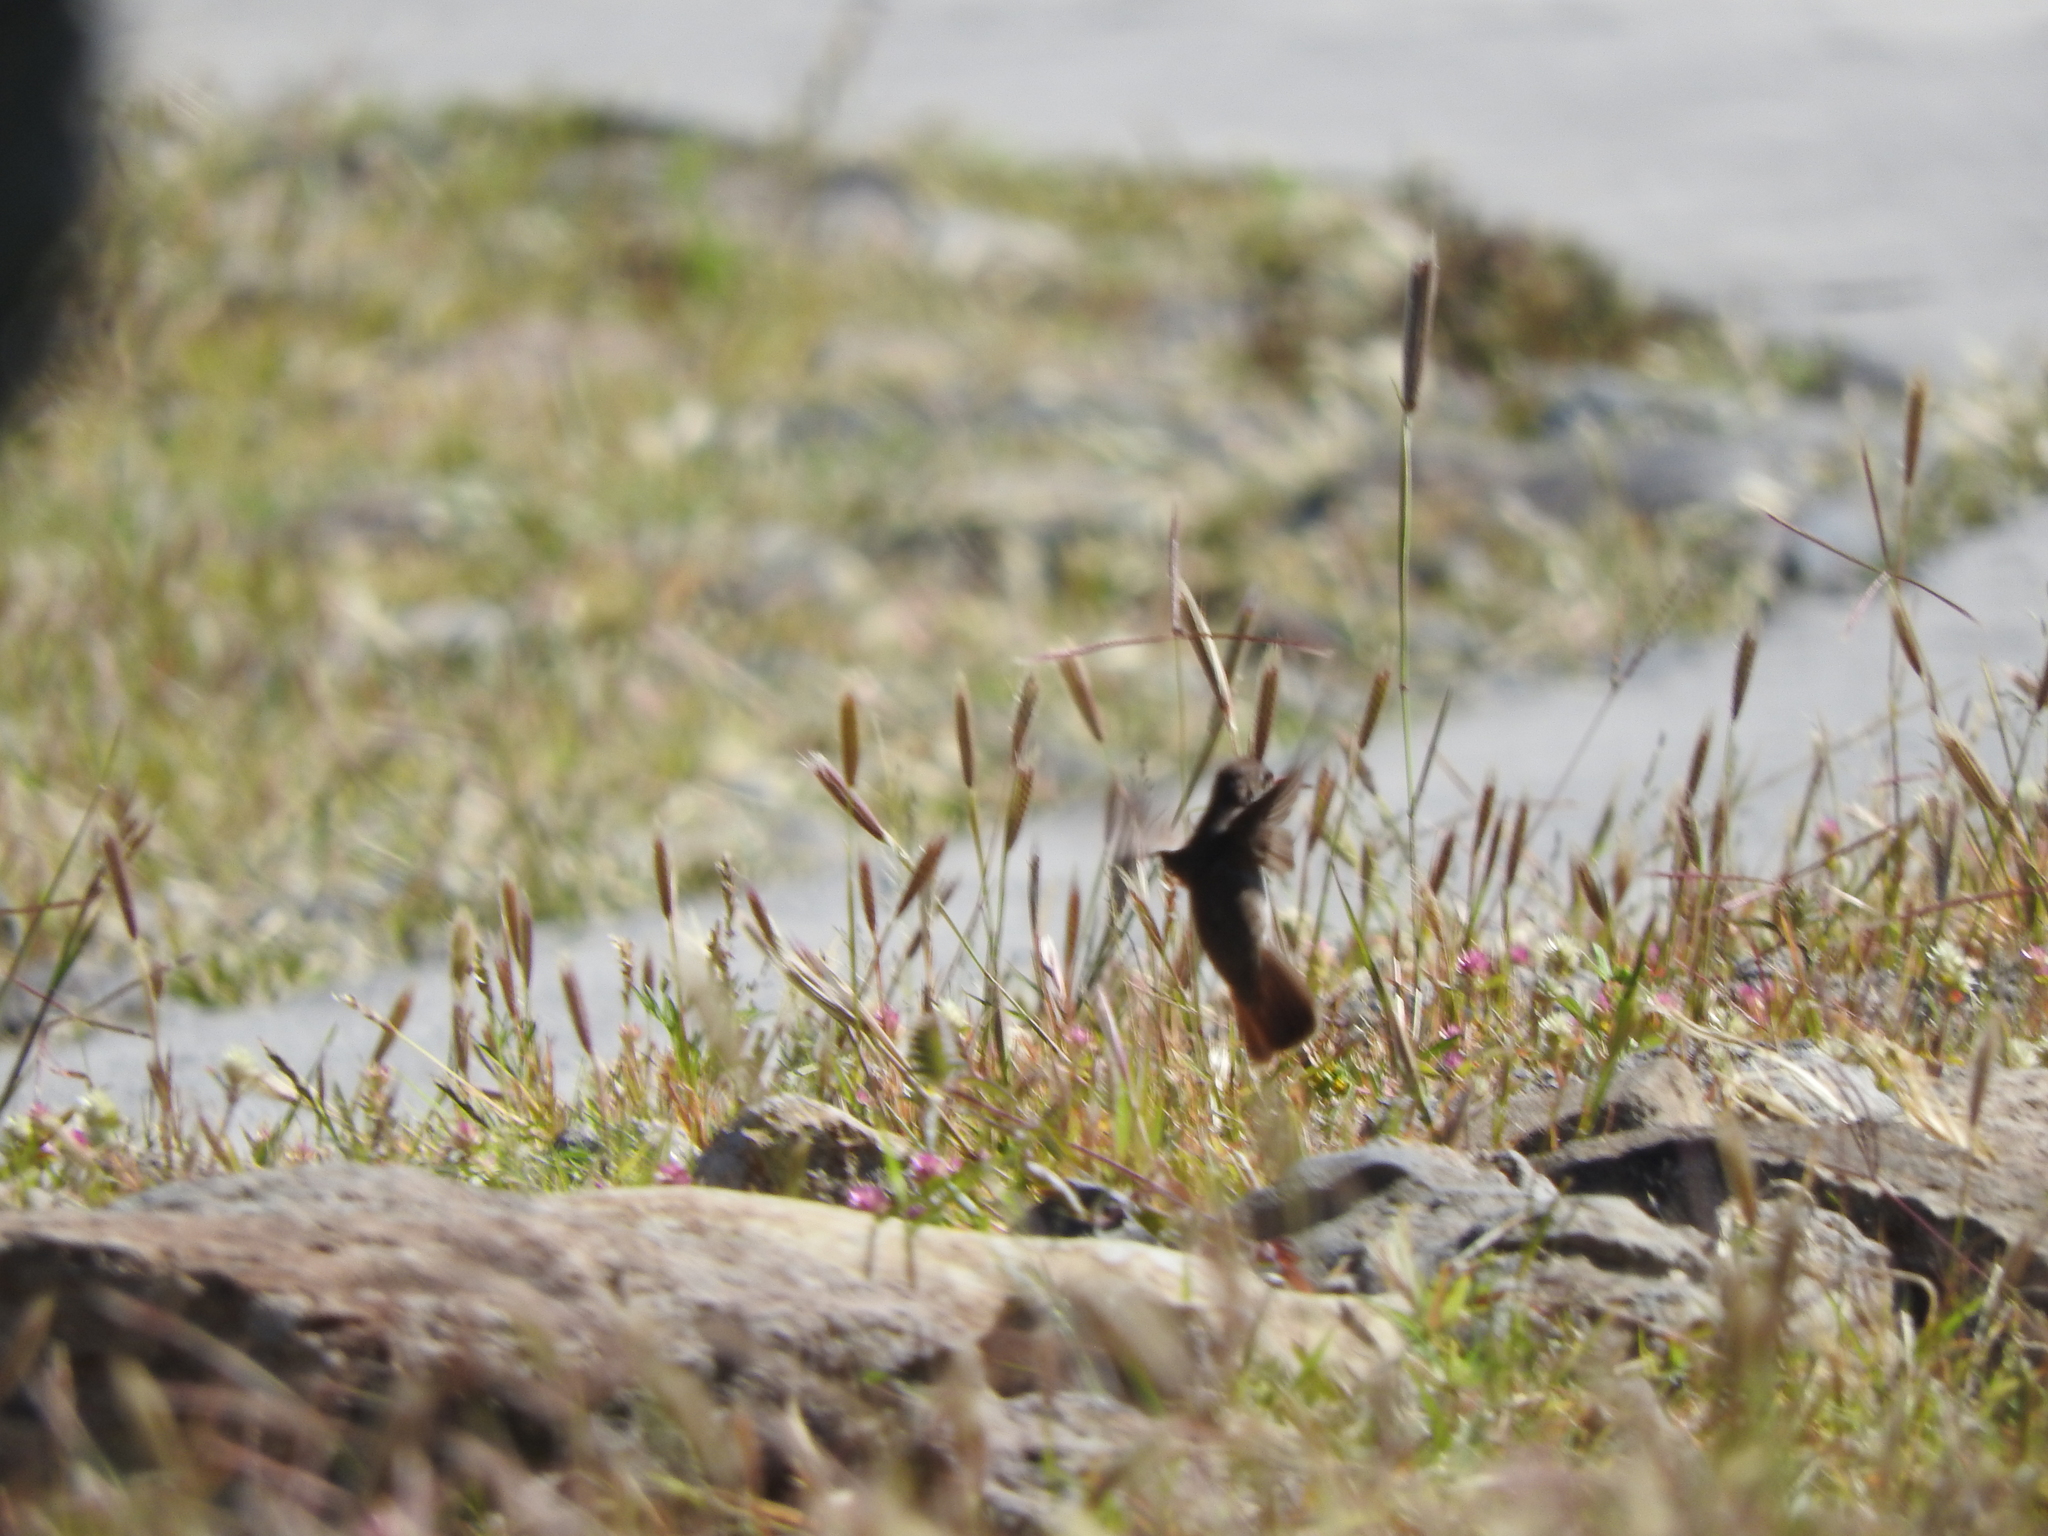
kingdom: Animalia
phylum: Chordata
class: Aves
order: Apodiformes
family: Trochilidae
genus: Saucerottia
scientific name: Saucerottia beryllina
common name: Berylline hummingbird
